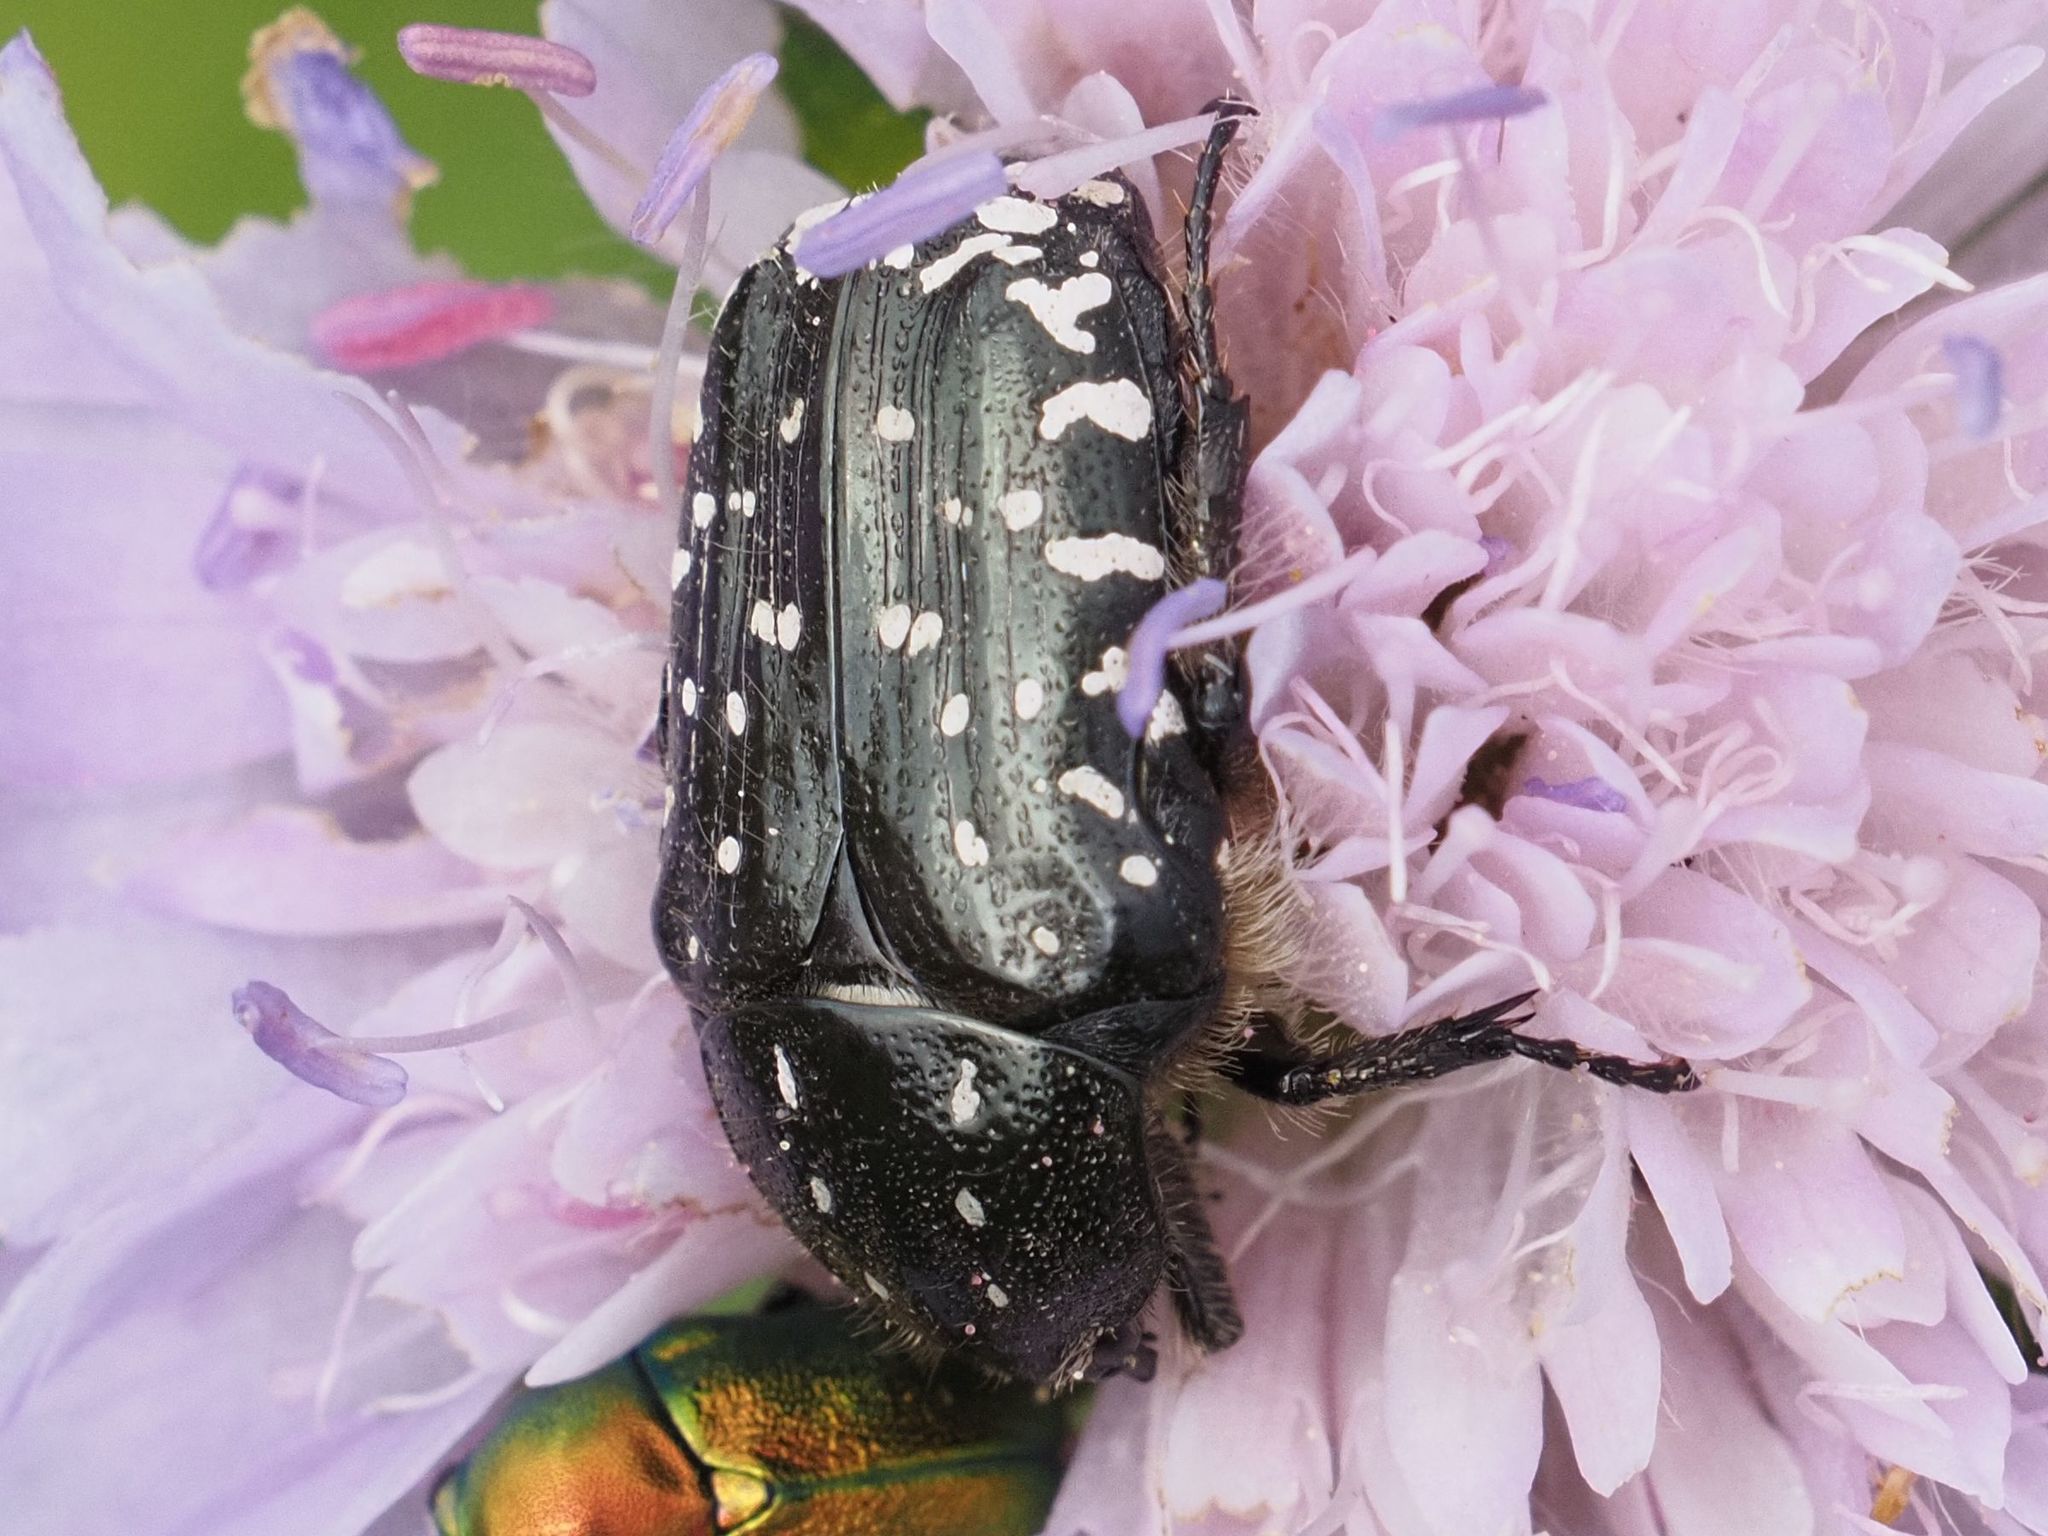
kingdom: Animalia
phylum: Arthropoda
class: Insecta
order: Coleoptera
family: Scarabaeidae
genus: Oxythyrea
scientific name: Oxythyrea funesta
